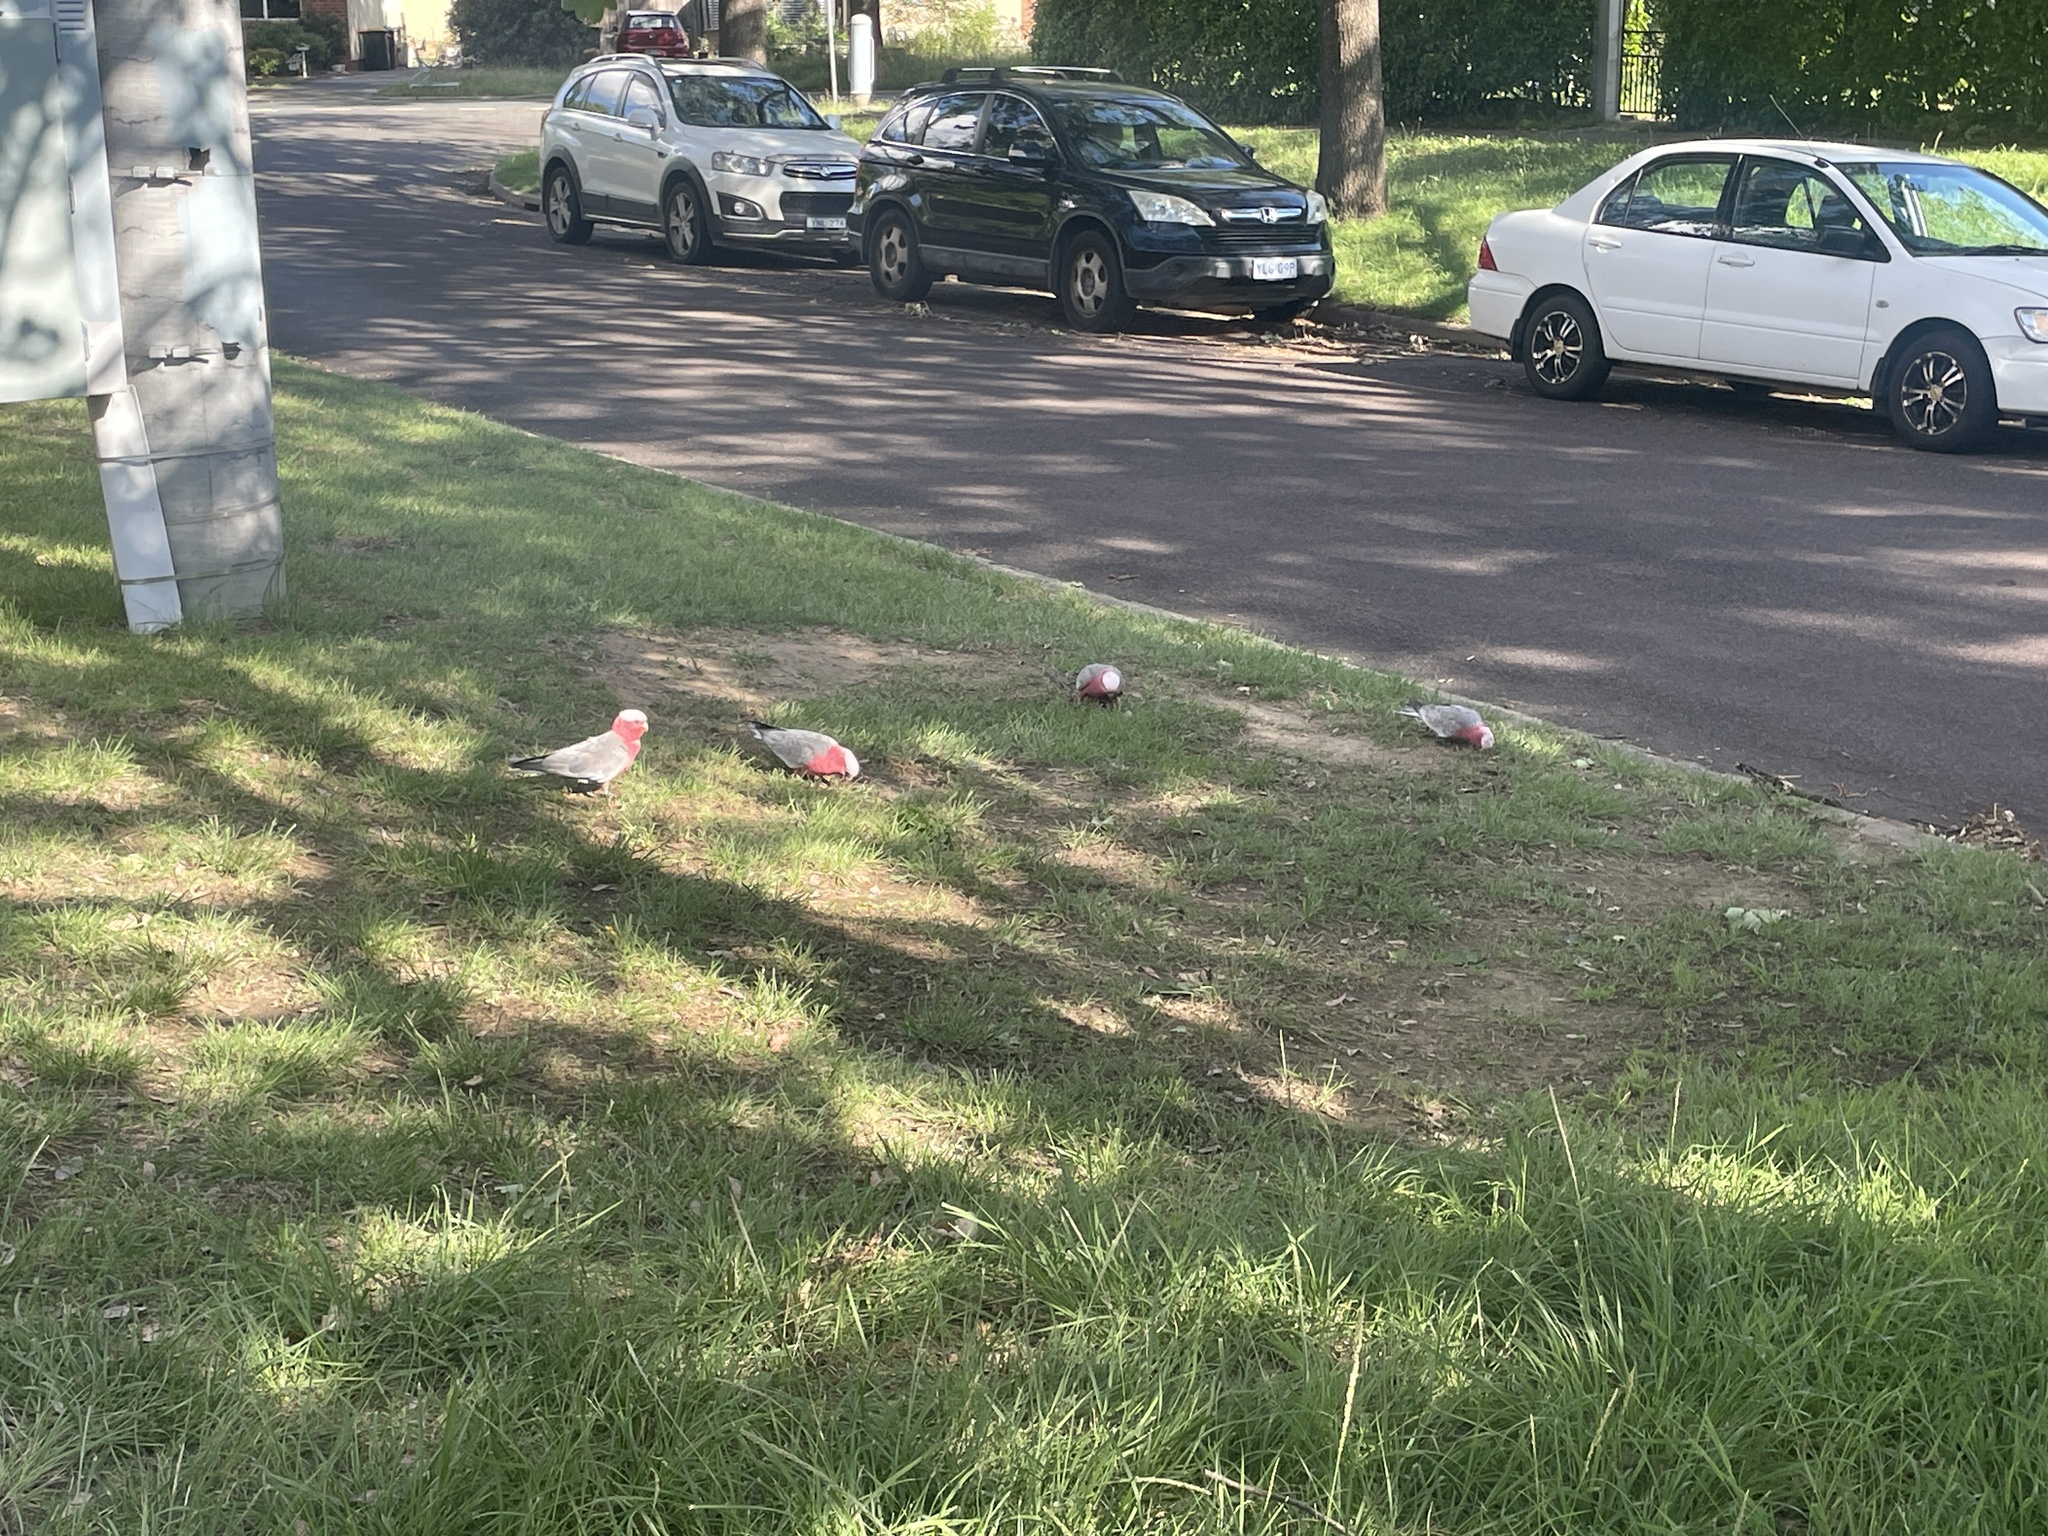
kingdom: Animalia
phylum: Chordata
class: Aves
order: Psittaciformes
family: Psittacidae
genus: Eolophus
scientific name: Eolophus roseicapilla
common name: Galah
